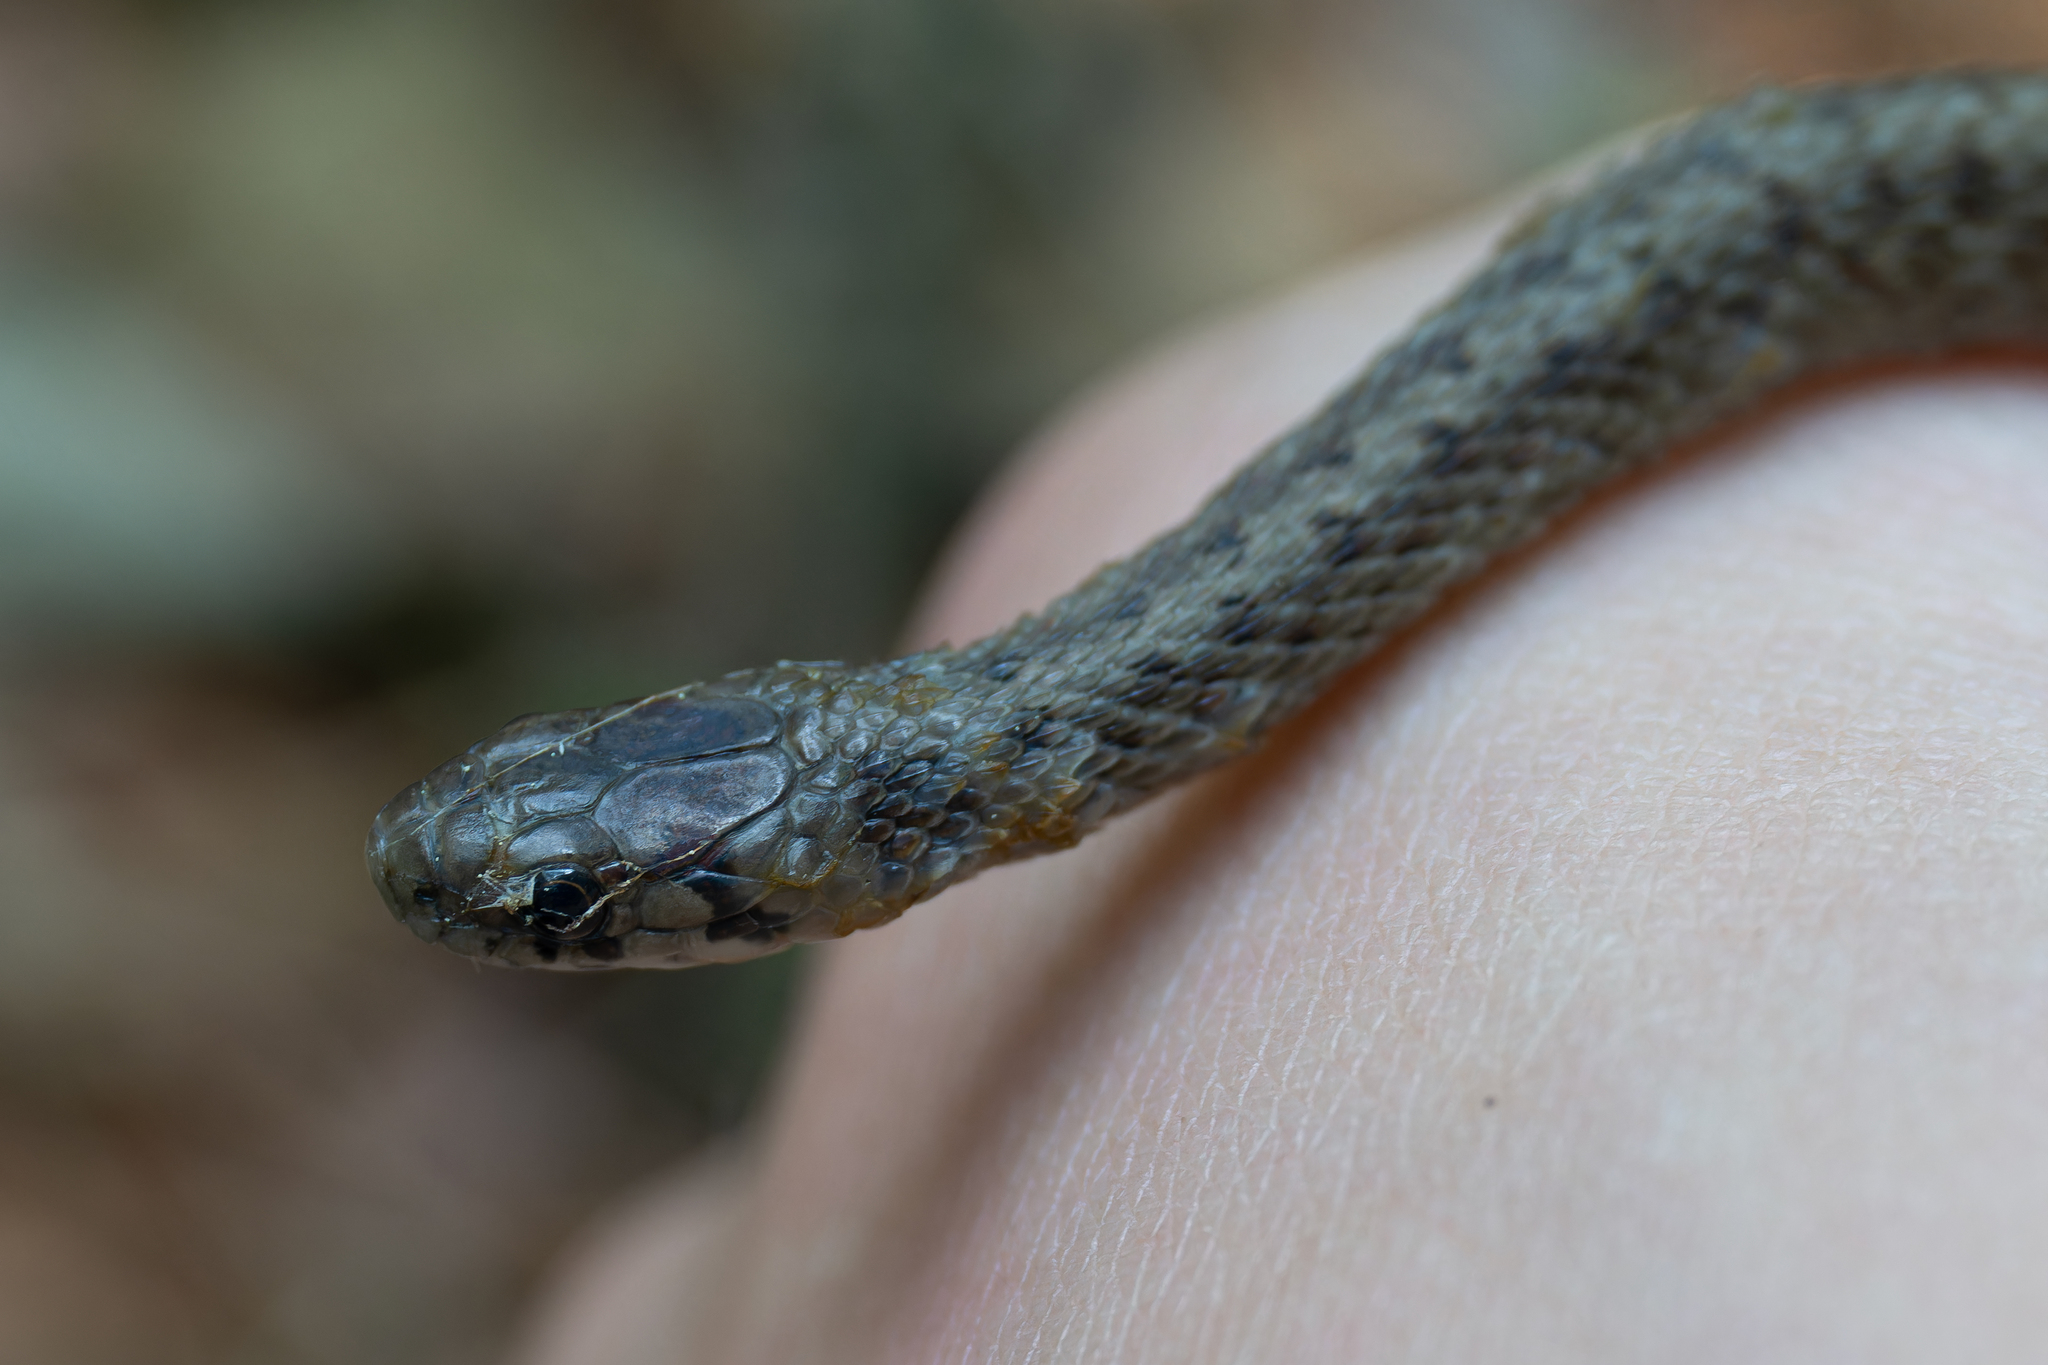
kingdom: Animalia
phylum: Chordata
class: Squamata
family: Colubridae
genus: Storeria
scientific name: Storeria dekayi
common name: (dekay’s) brown snake
